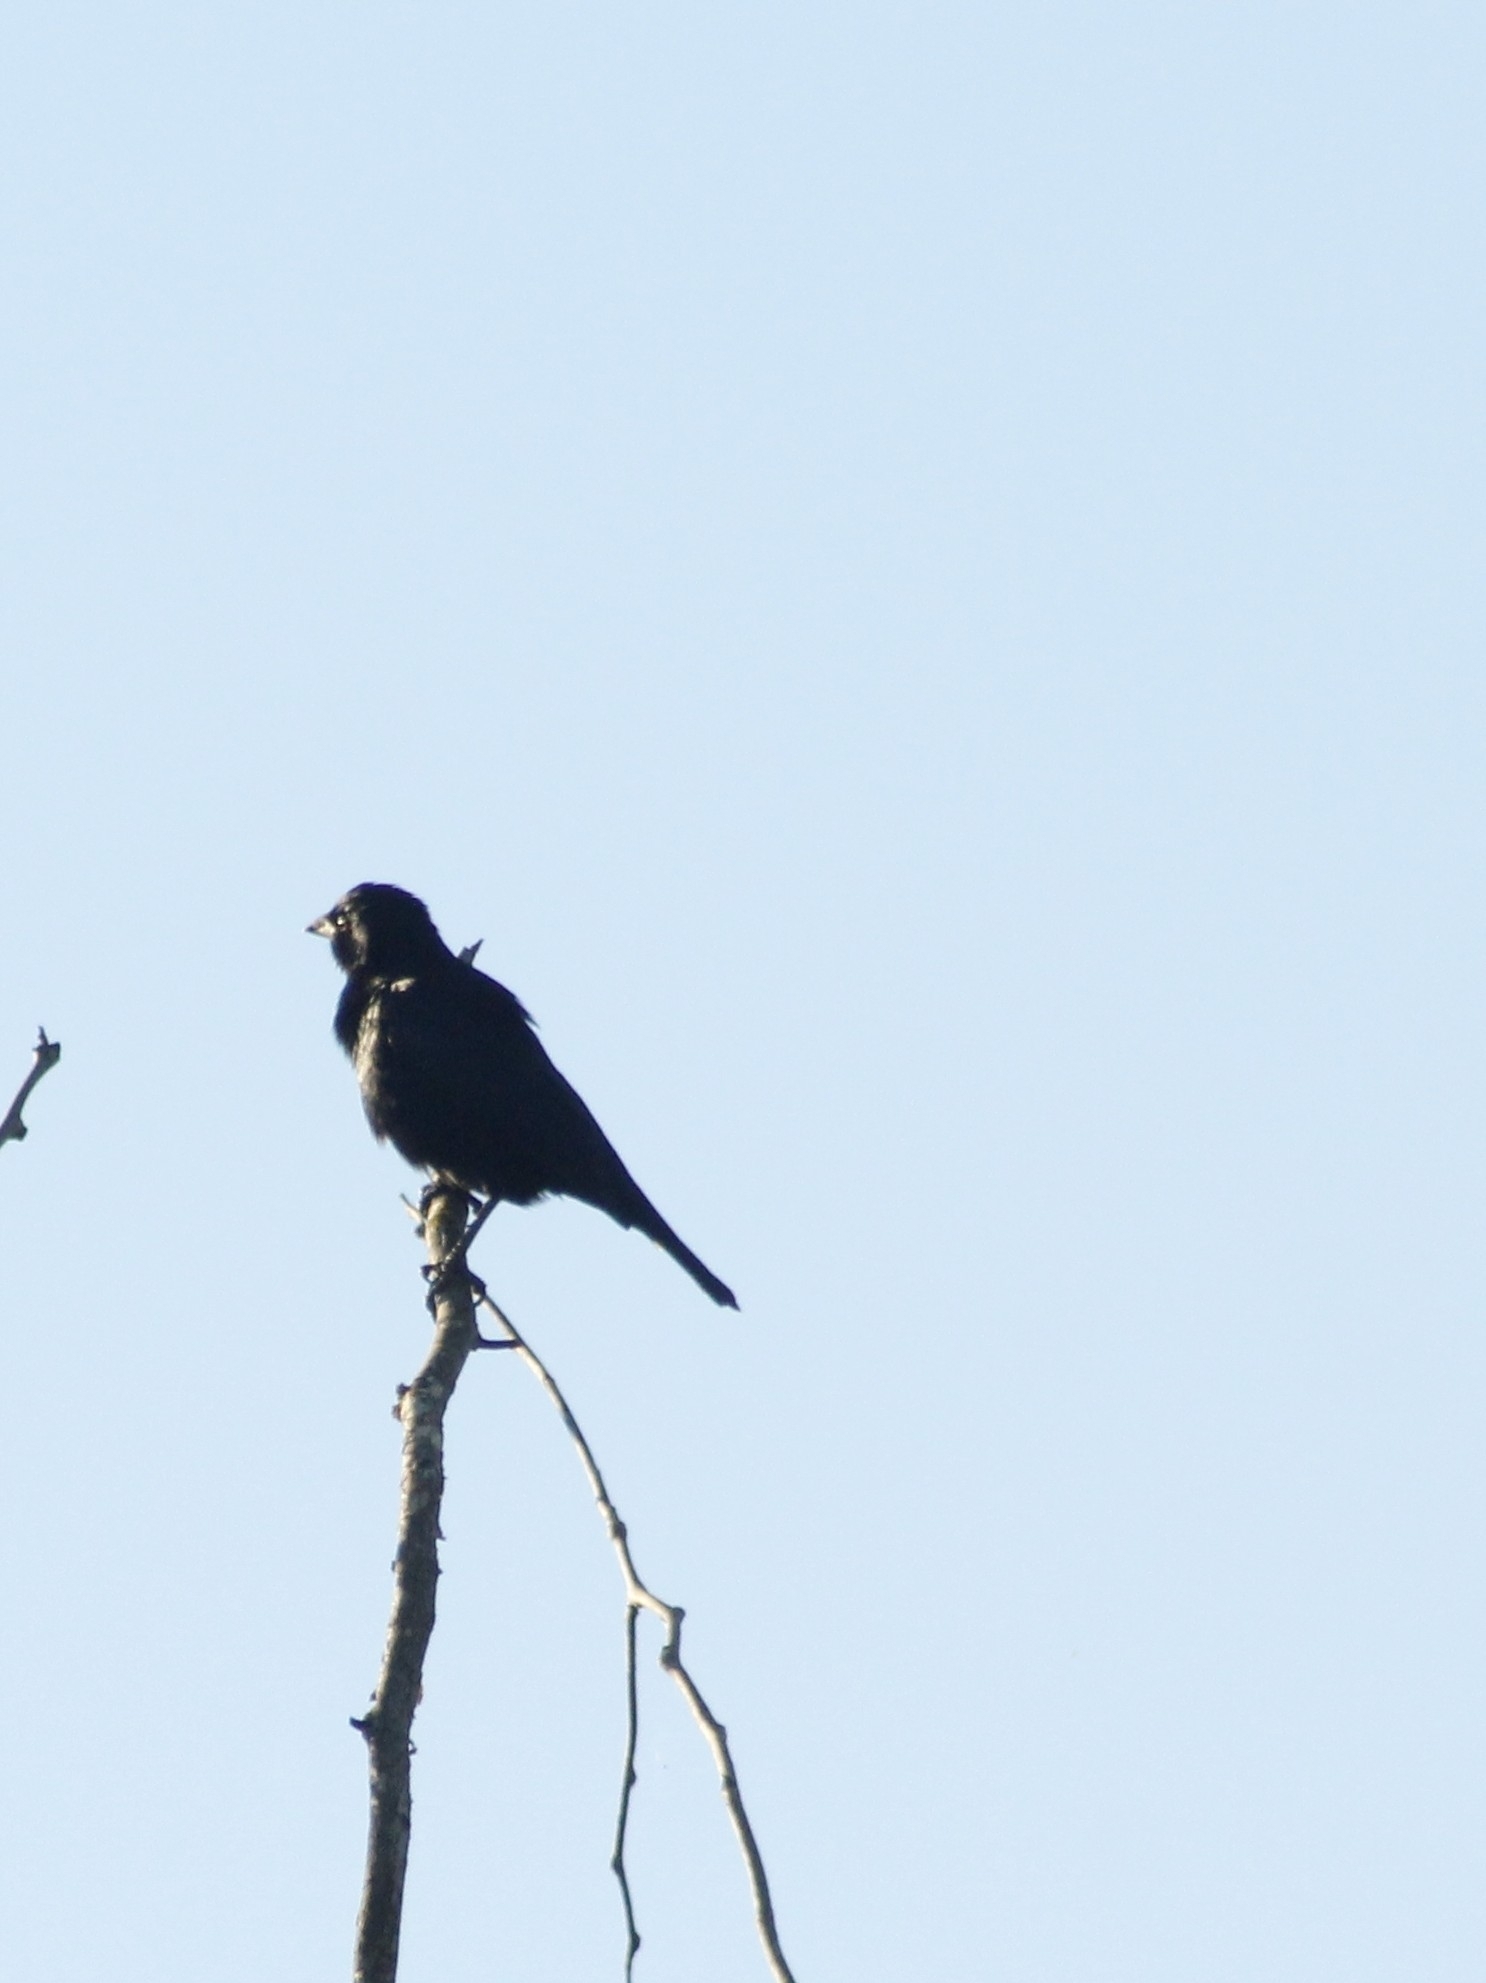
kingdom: Animalia
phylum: Chordata
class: Aves
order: Passeriformes
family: Icteridae
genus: Molothrus
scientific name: Molothrus rufoaxillaris
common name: Screaming cowbird
